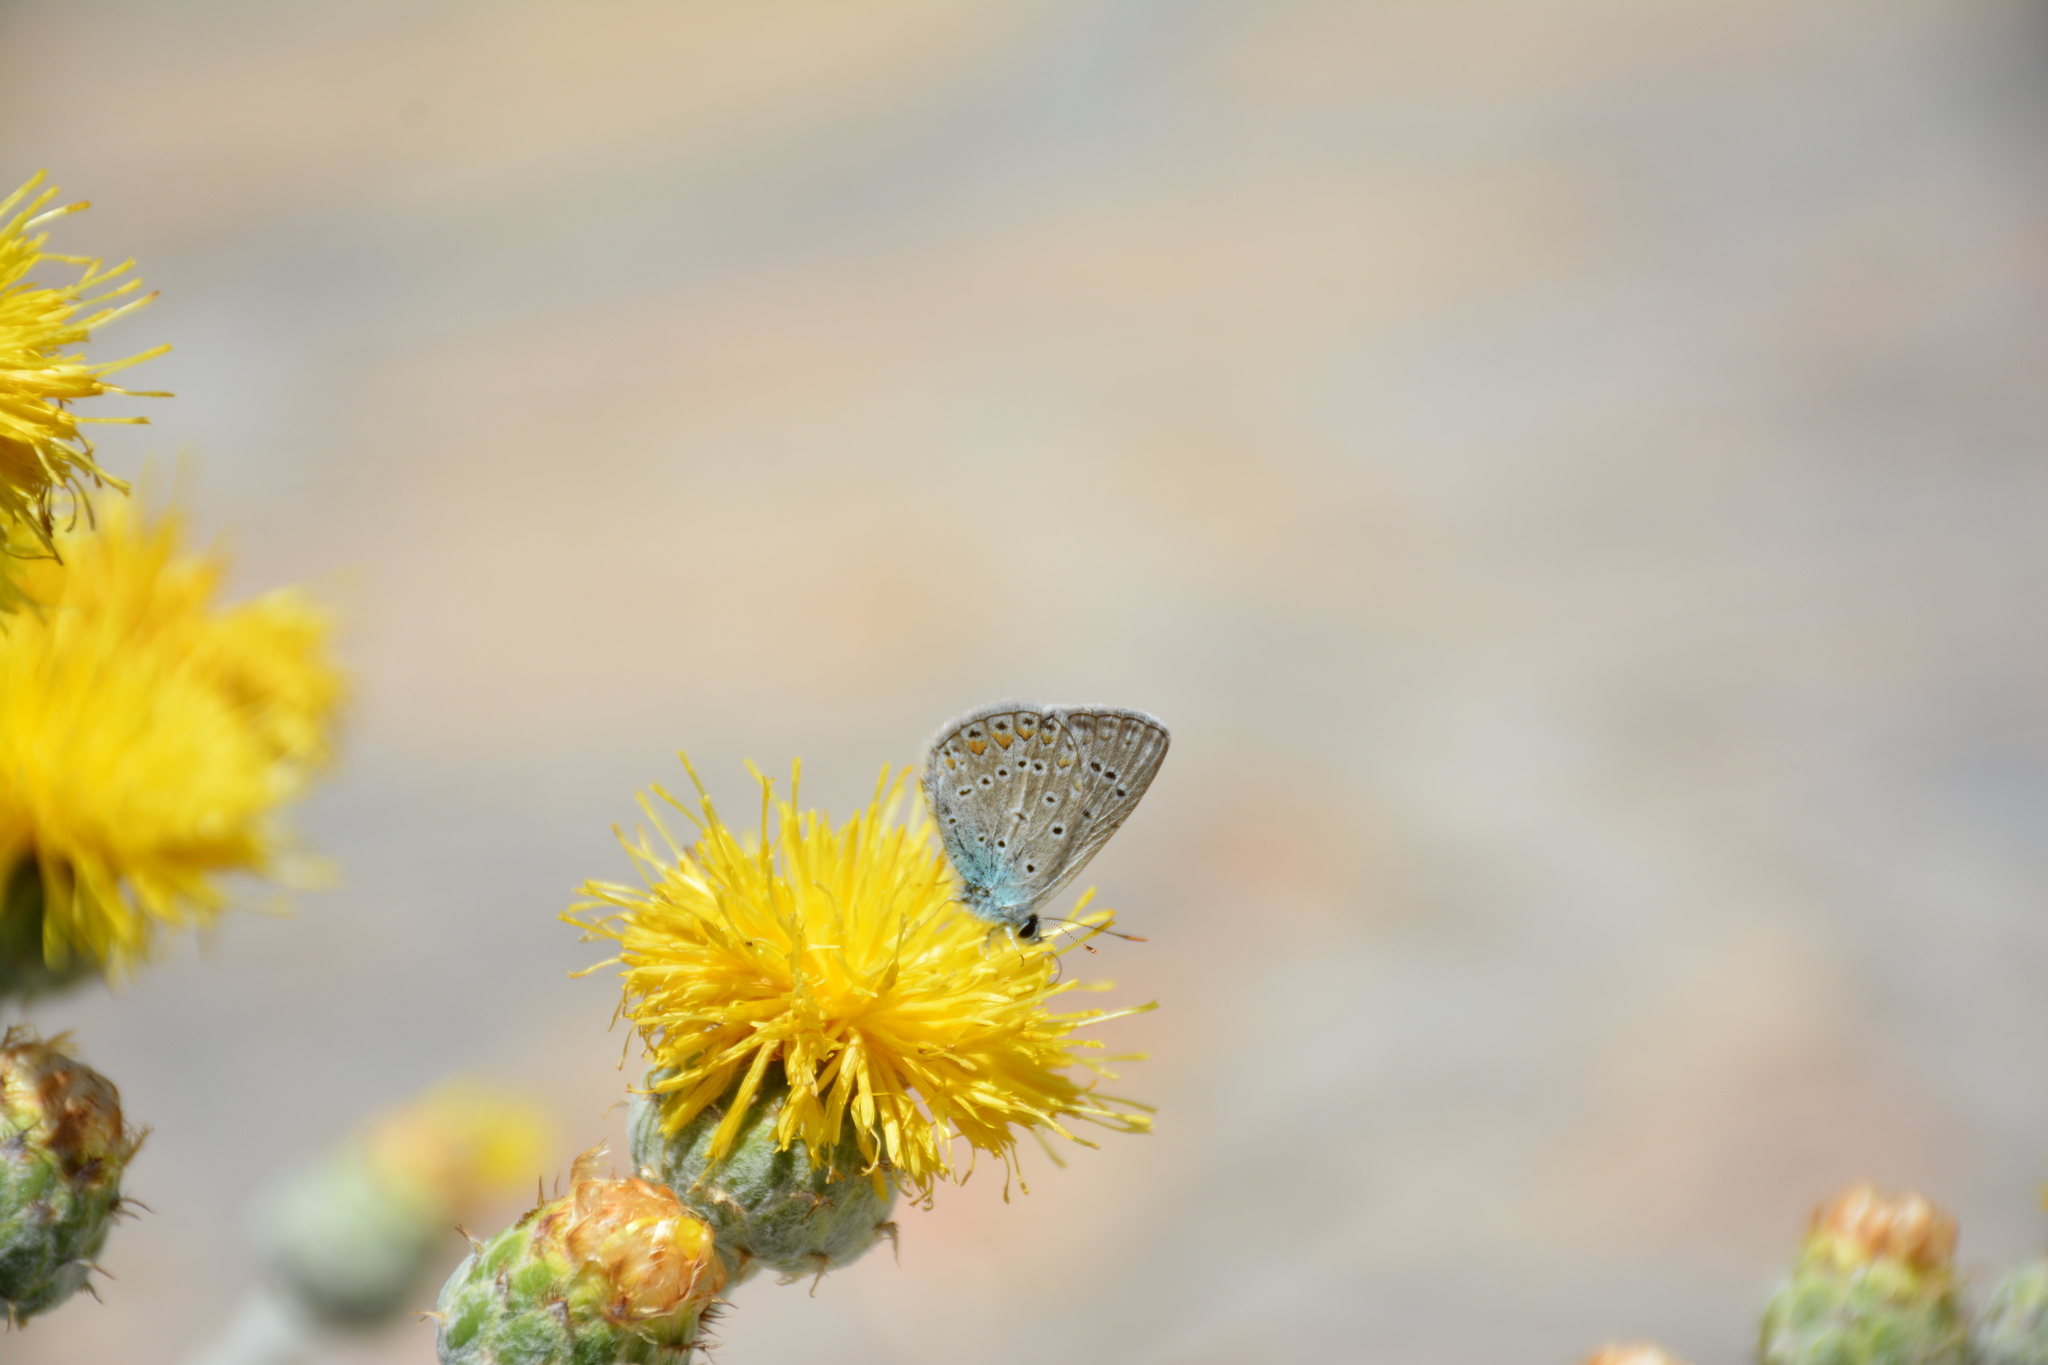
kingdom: Animalia
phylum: Arthropoda
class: Insecta
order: Lepidoptera
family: Lycaenidae
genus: Polyommatus
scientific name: Polyommatus icarus
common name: Common blue
